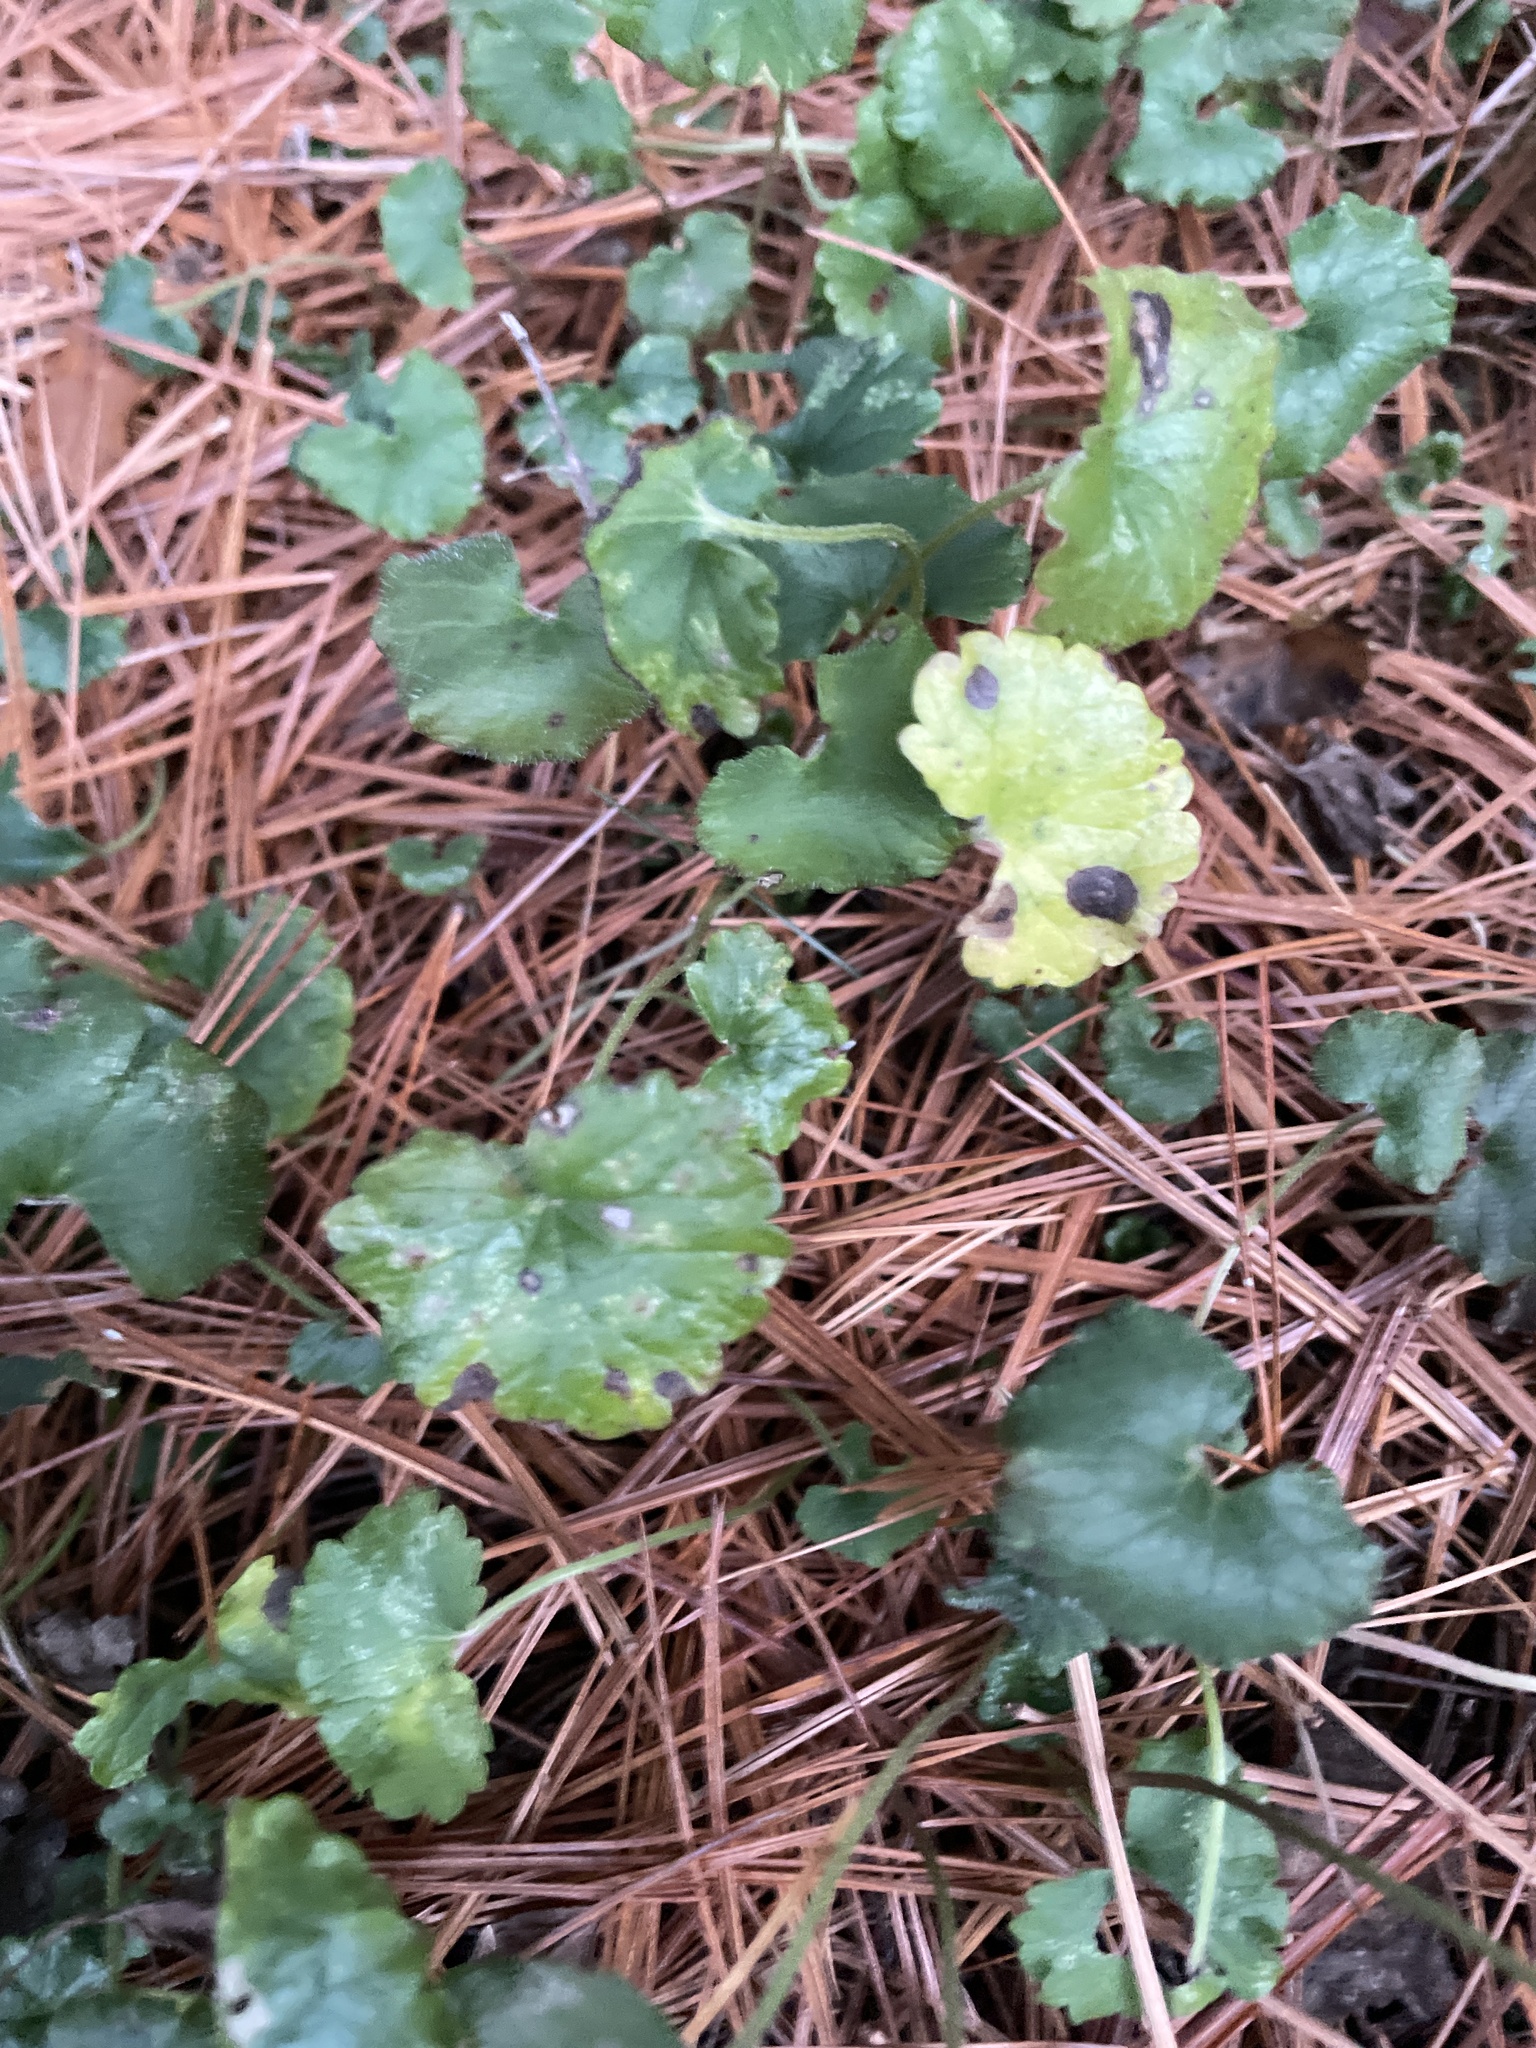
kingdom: Plantae
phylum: Tracheophyta
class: Magnoliopsida
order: Lamiales
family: Lamiaceae
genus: Glechoma
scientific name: Glechoma hederacea
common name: Ground ivy
